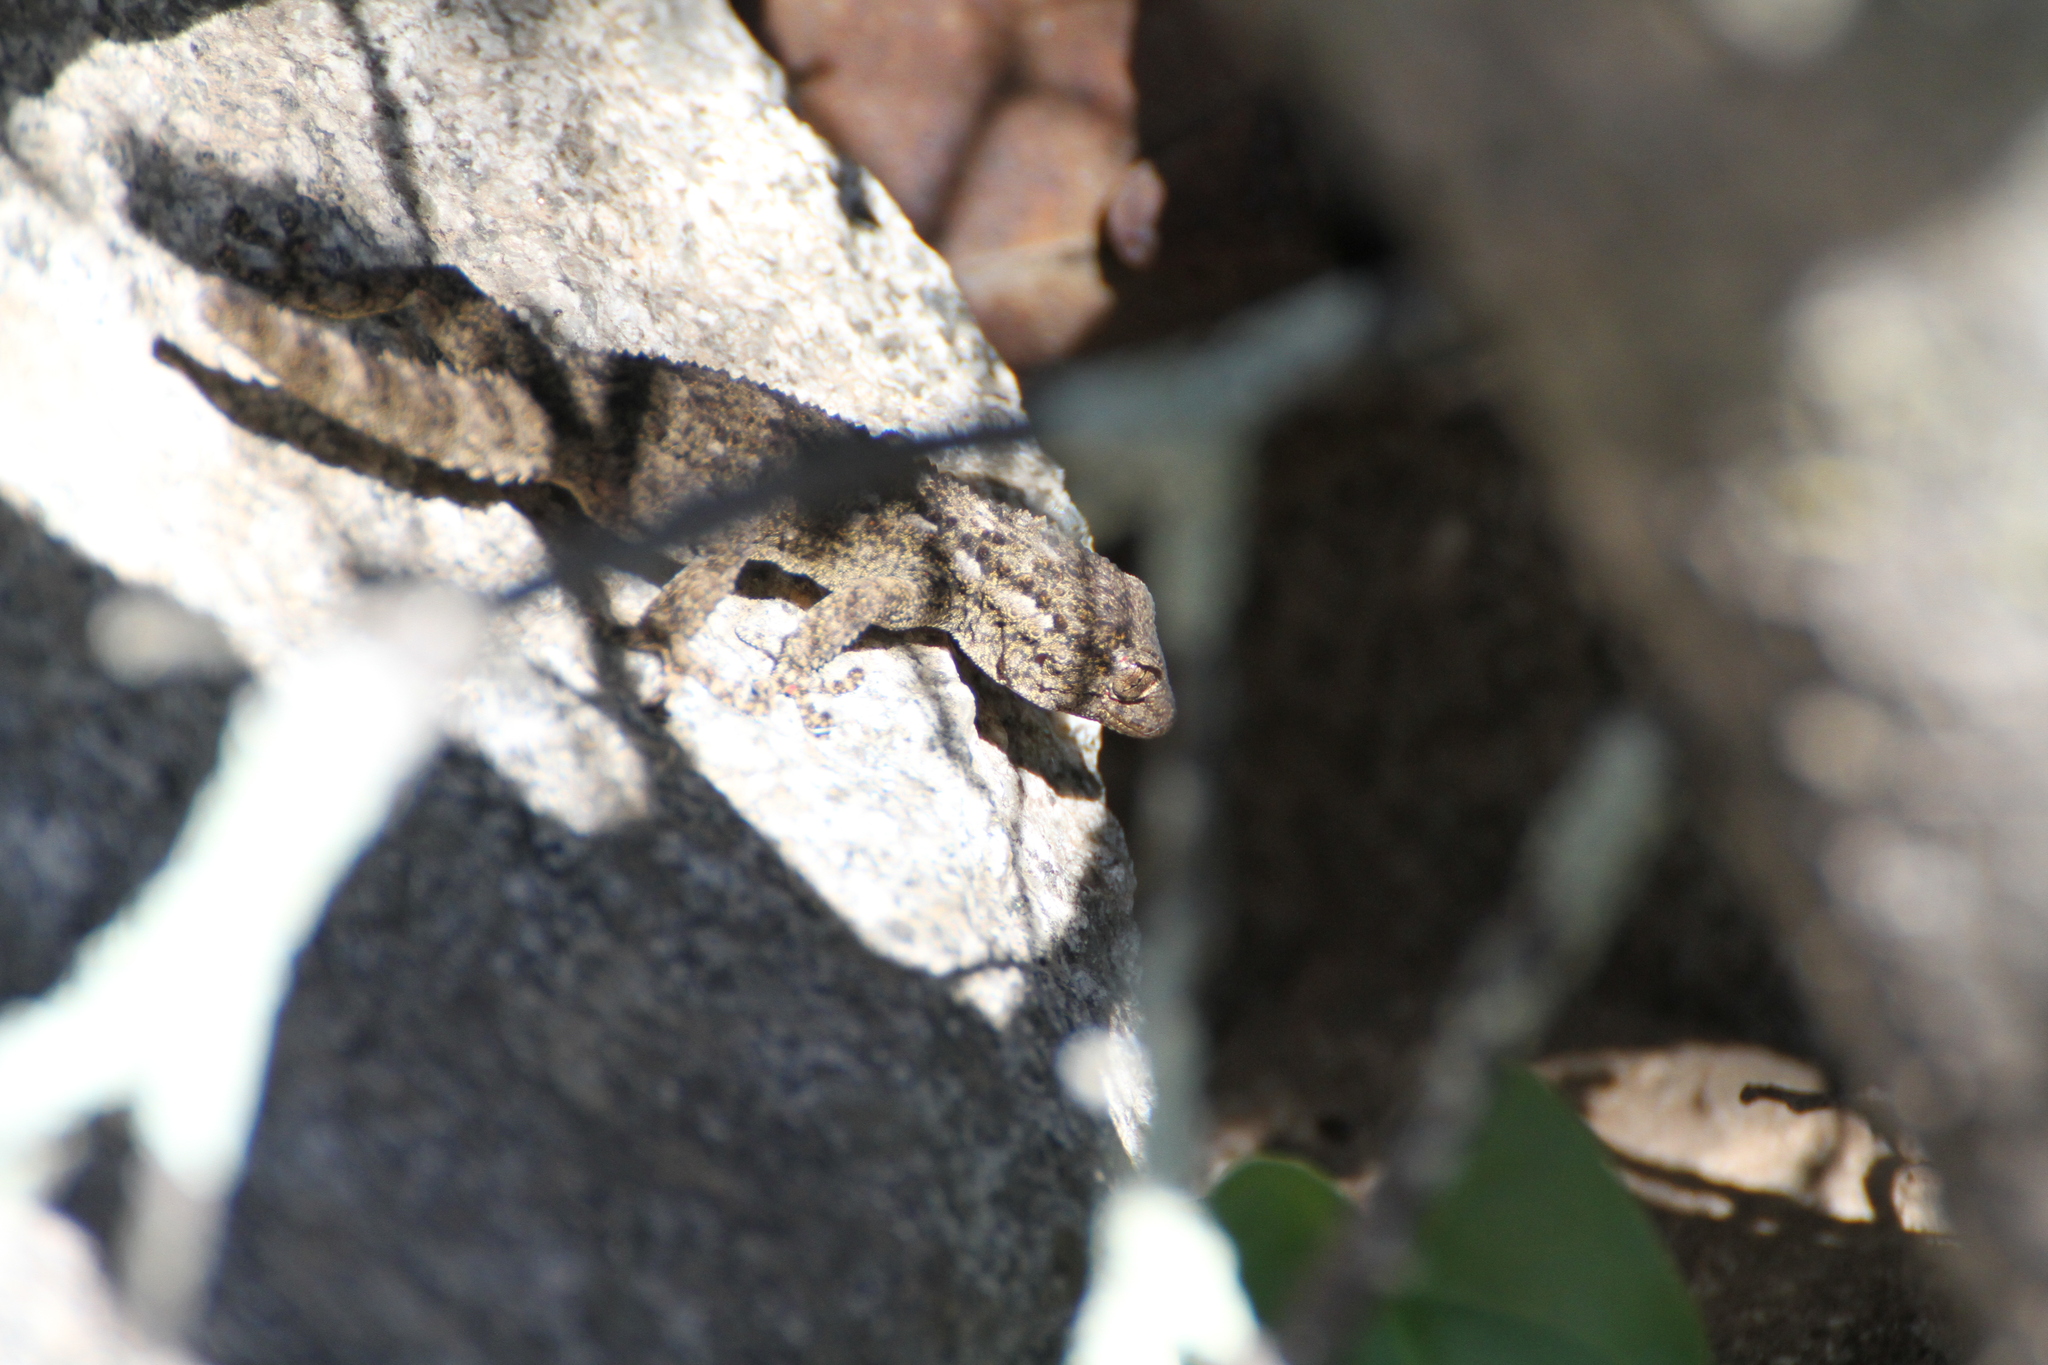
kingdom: Animalia
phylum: Chordata
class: Squamata
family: Phyllodactylidae
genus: Tarentola
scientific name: Tarentola mauritanica
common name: Moorish gecko
